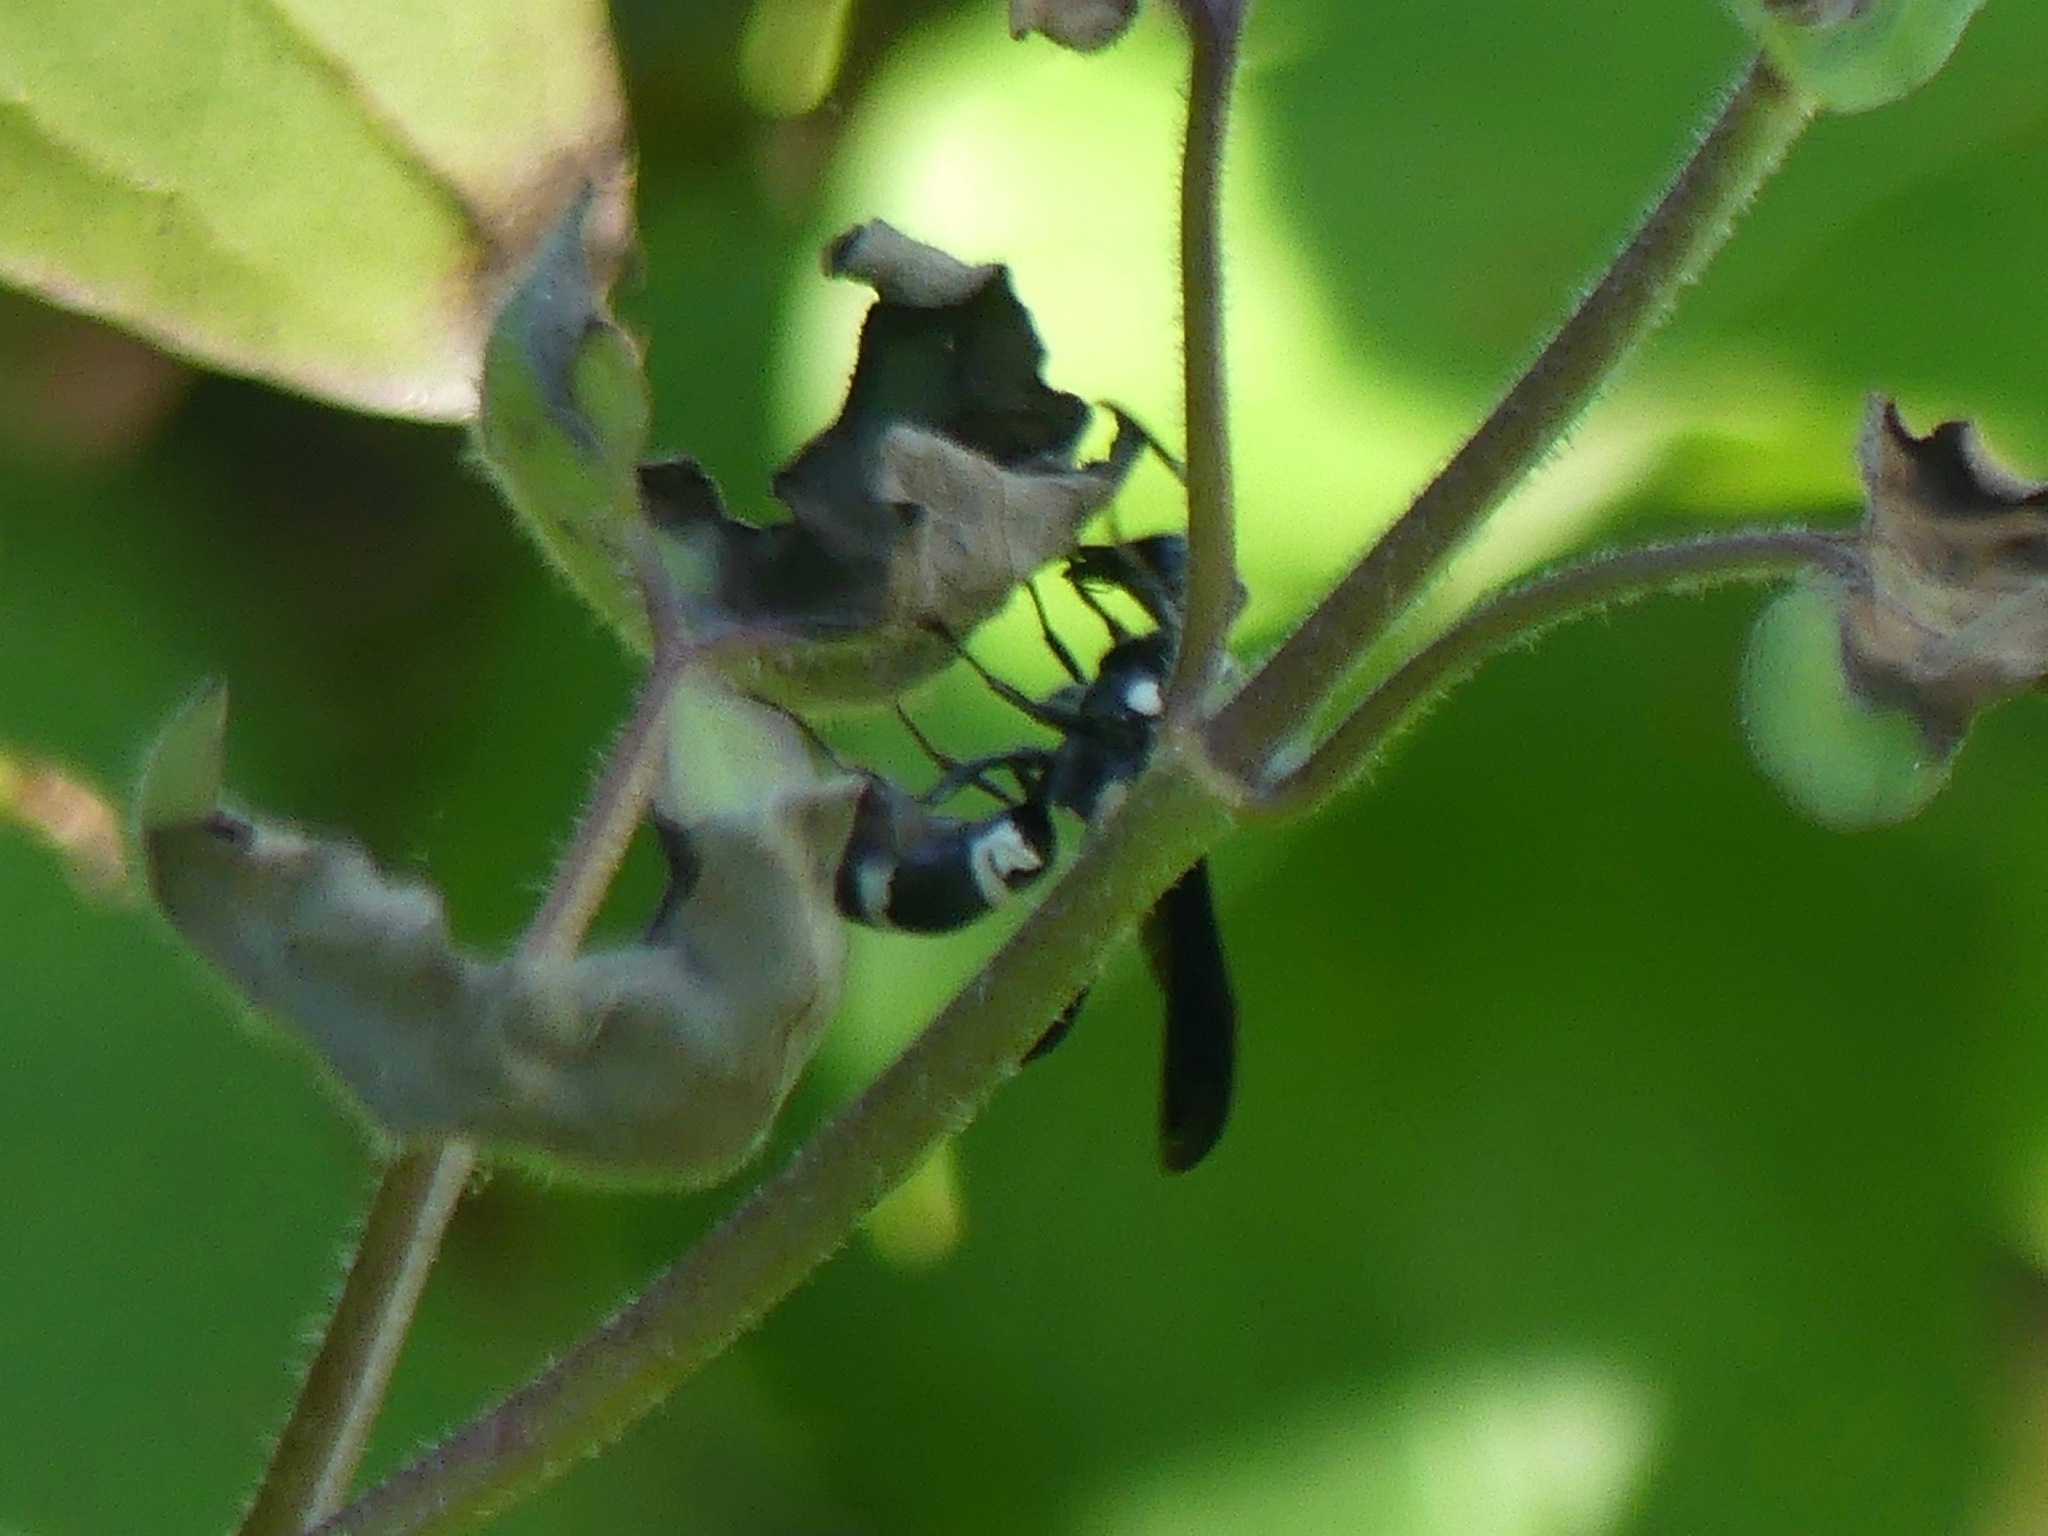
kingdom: Animalia
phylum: Arthropoda
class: Insecta
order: Hymenoptera
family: Eumenidae
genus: Pseudodynerus
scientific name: Pseudodynerus quadrisectus
